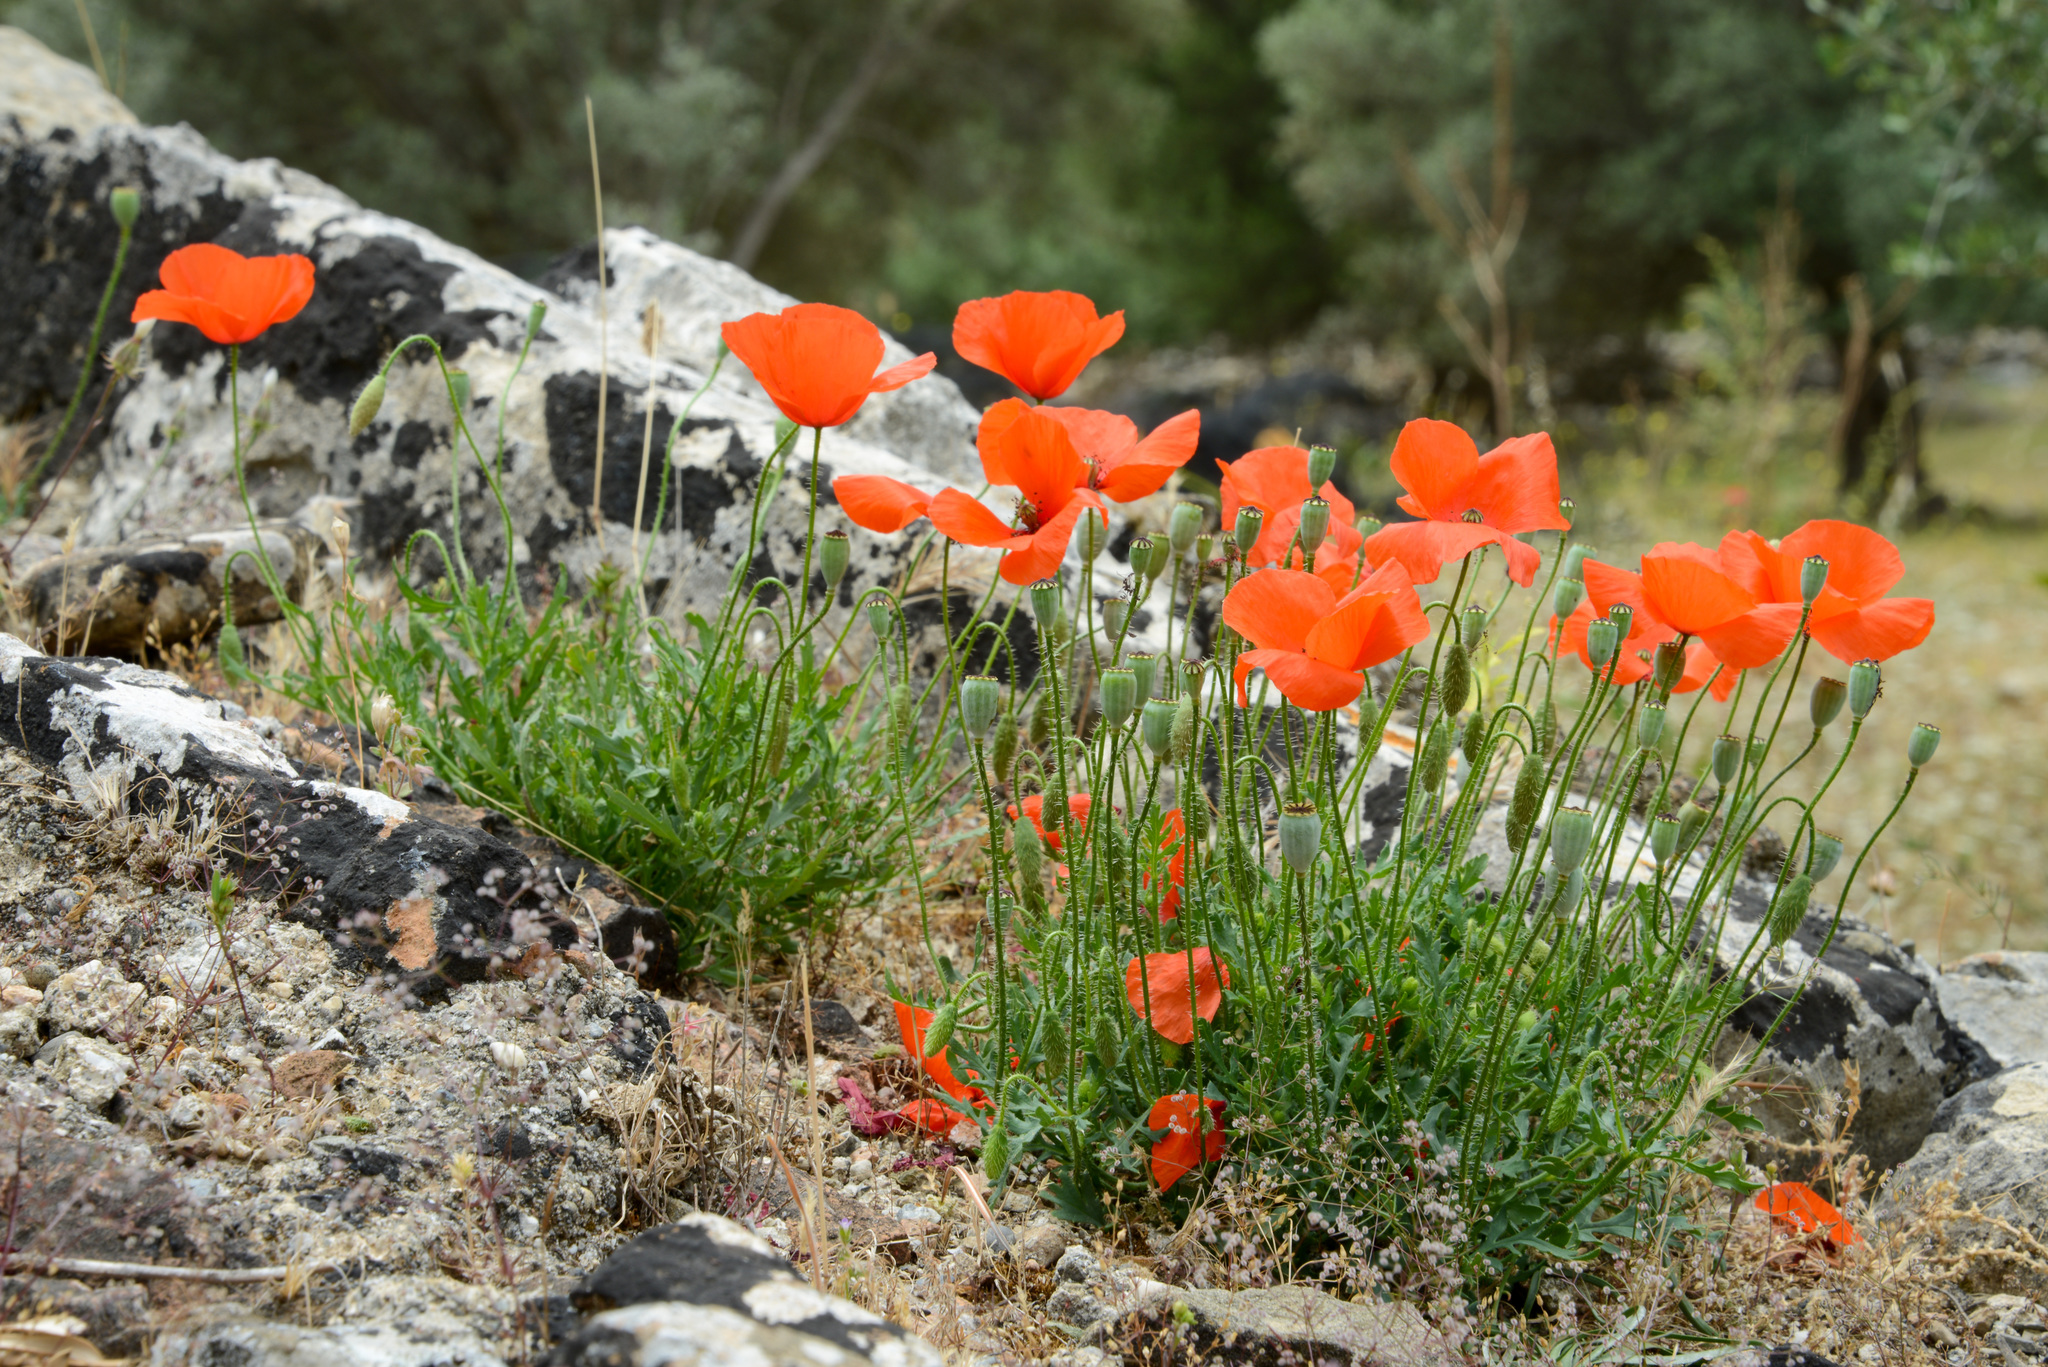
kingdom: Plantae
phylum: Tracheophyta
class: Magnoliopsida
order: Ranunculales
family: Papaveraceae
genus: Papaver
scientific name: Papaver rhoeas
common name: Corn poppy
